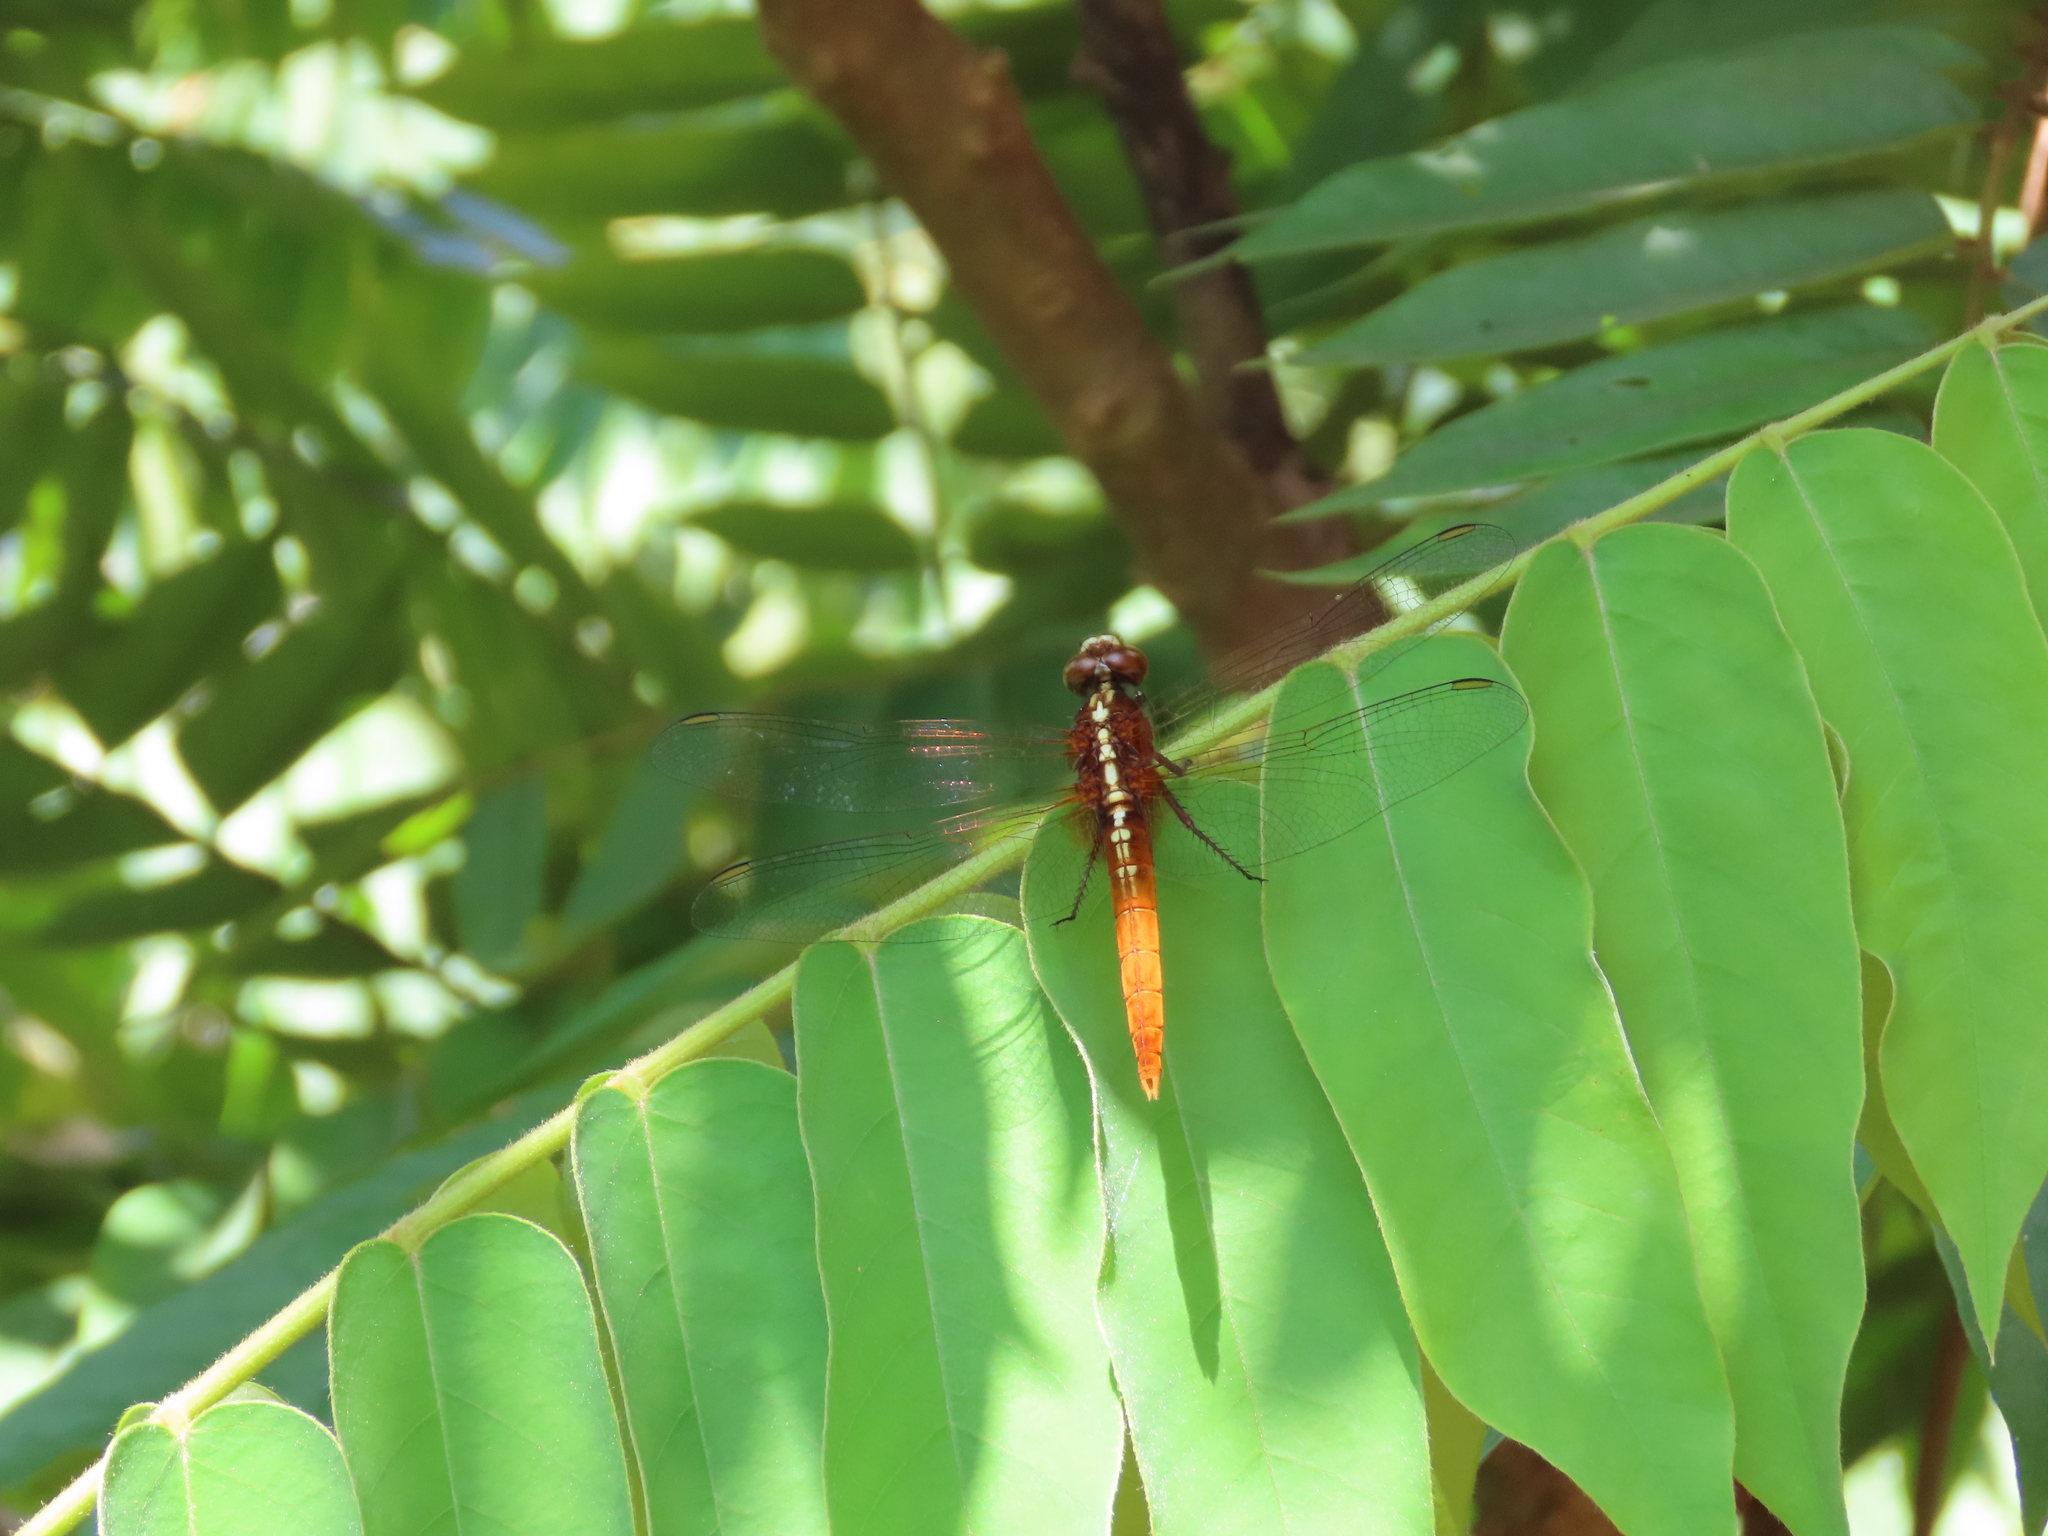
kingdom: Animalia
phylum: Arthropoda
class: Insecta
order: Odonata
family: Libellulidae
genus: Rhodothemis
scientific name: Rhodothemis rufa
